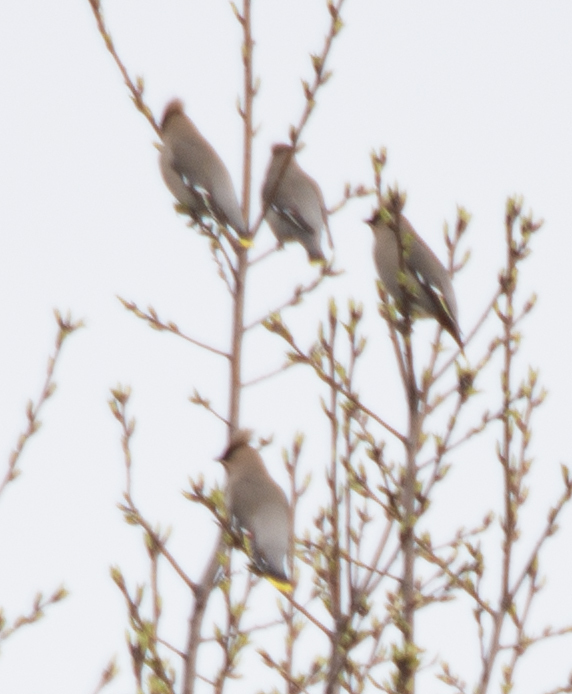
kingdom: Animalia
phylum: Chordata
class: Aves
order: Passeriformes
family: Bombycillidae
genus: Bombycilla
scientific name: Bombycilla garrulus
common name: Bohemian waxwing
